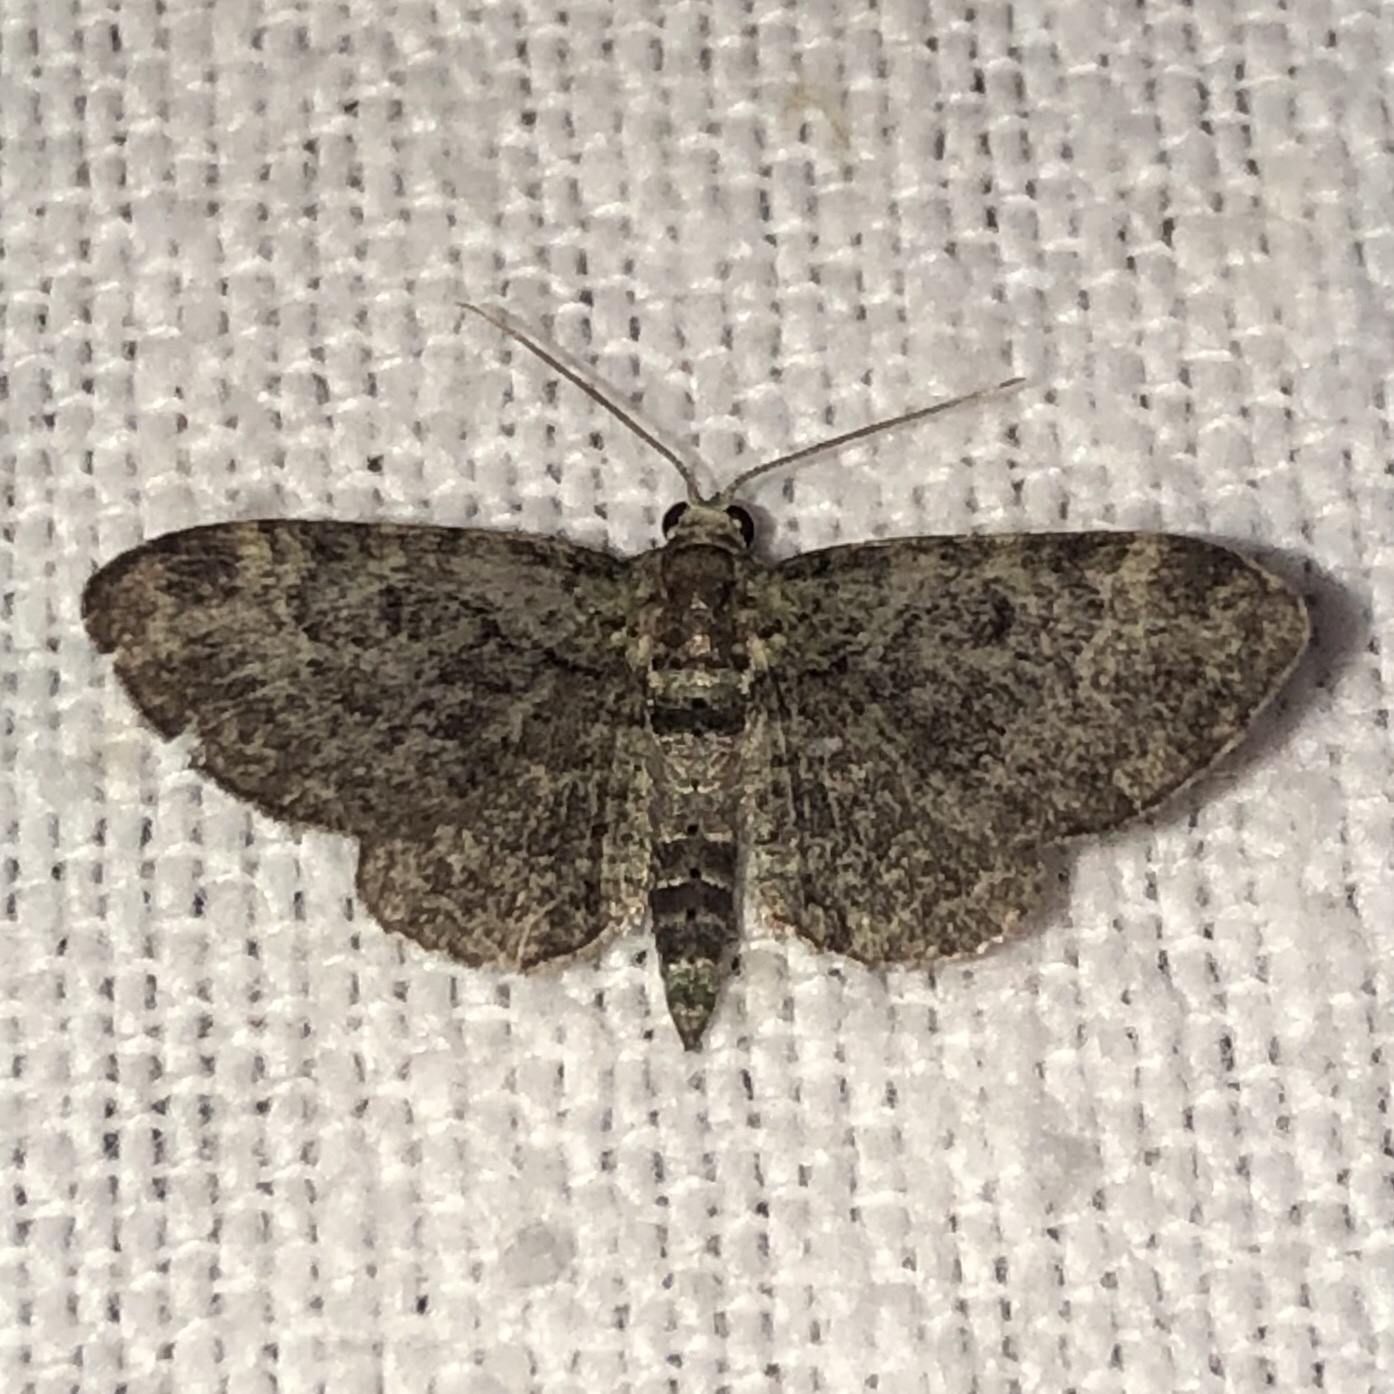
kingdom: Animalia
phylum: Arthropoda
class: Insecta
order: Lepidoptera
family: Geometridae
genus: Pasiphila
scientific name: Pasiphila rectangulata
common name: Green pug
